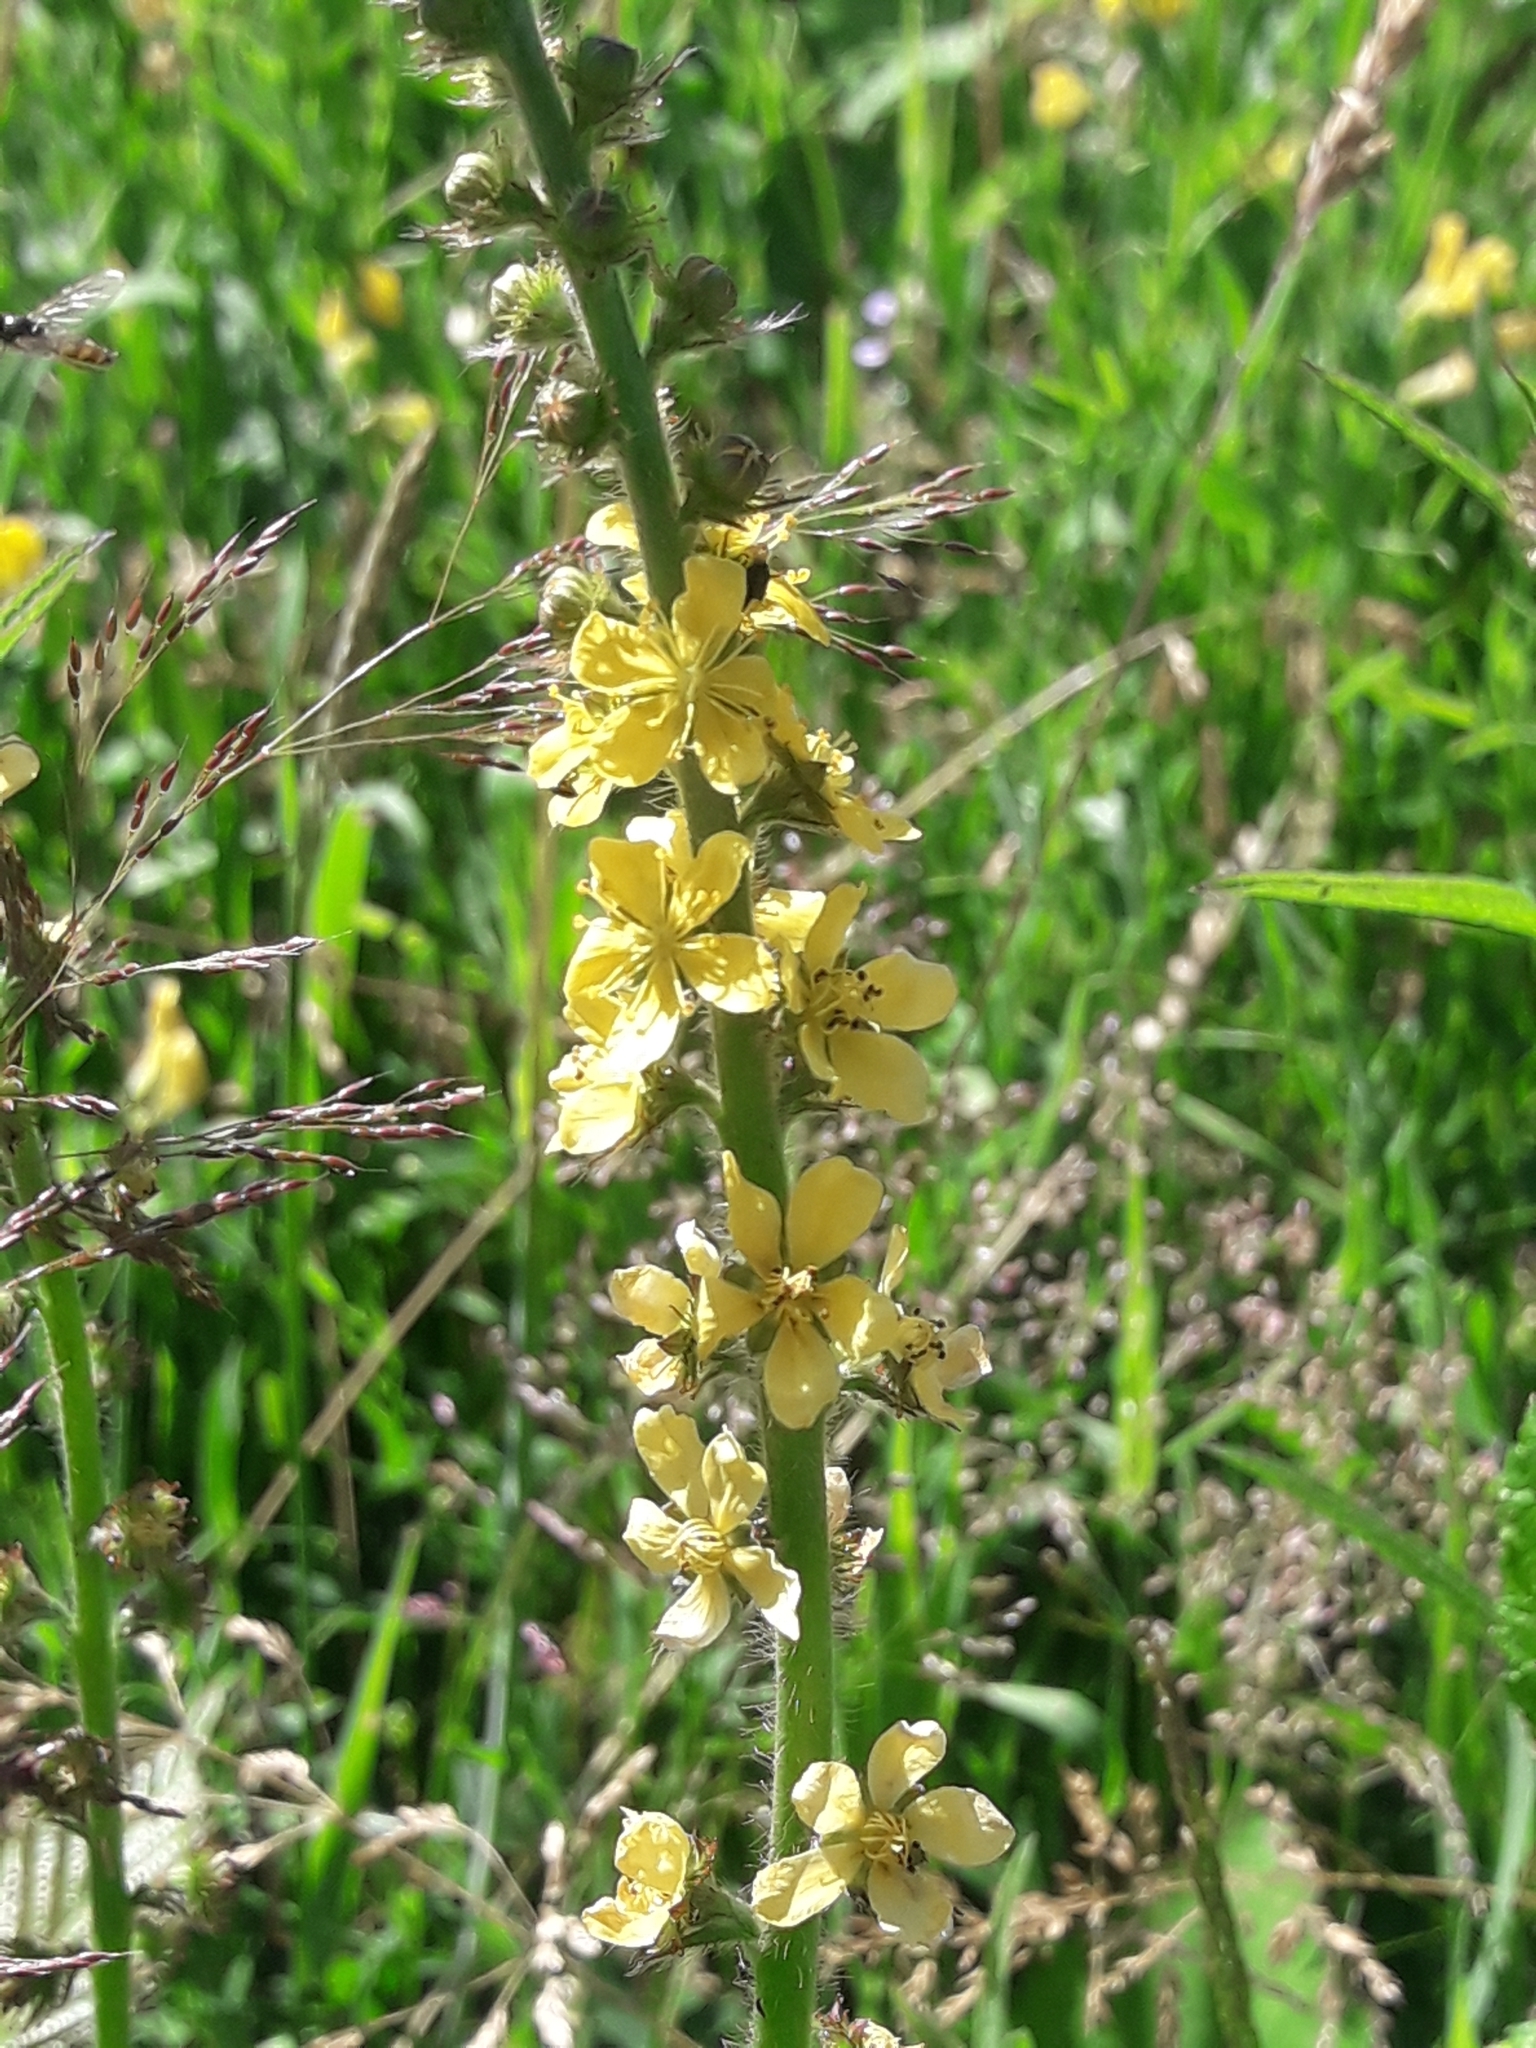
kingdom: Plantae
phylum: Tracheophyta
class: Magnoliopsida
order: Rosales
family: Rosaceae
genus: Agrimonia
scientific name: Agrimonia eupatoria
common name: Agrimony
